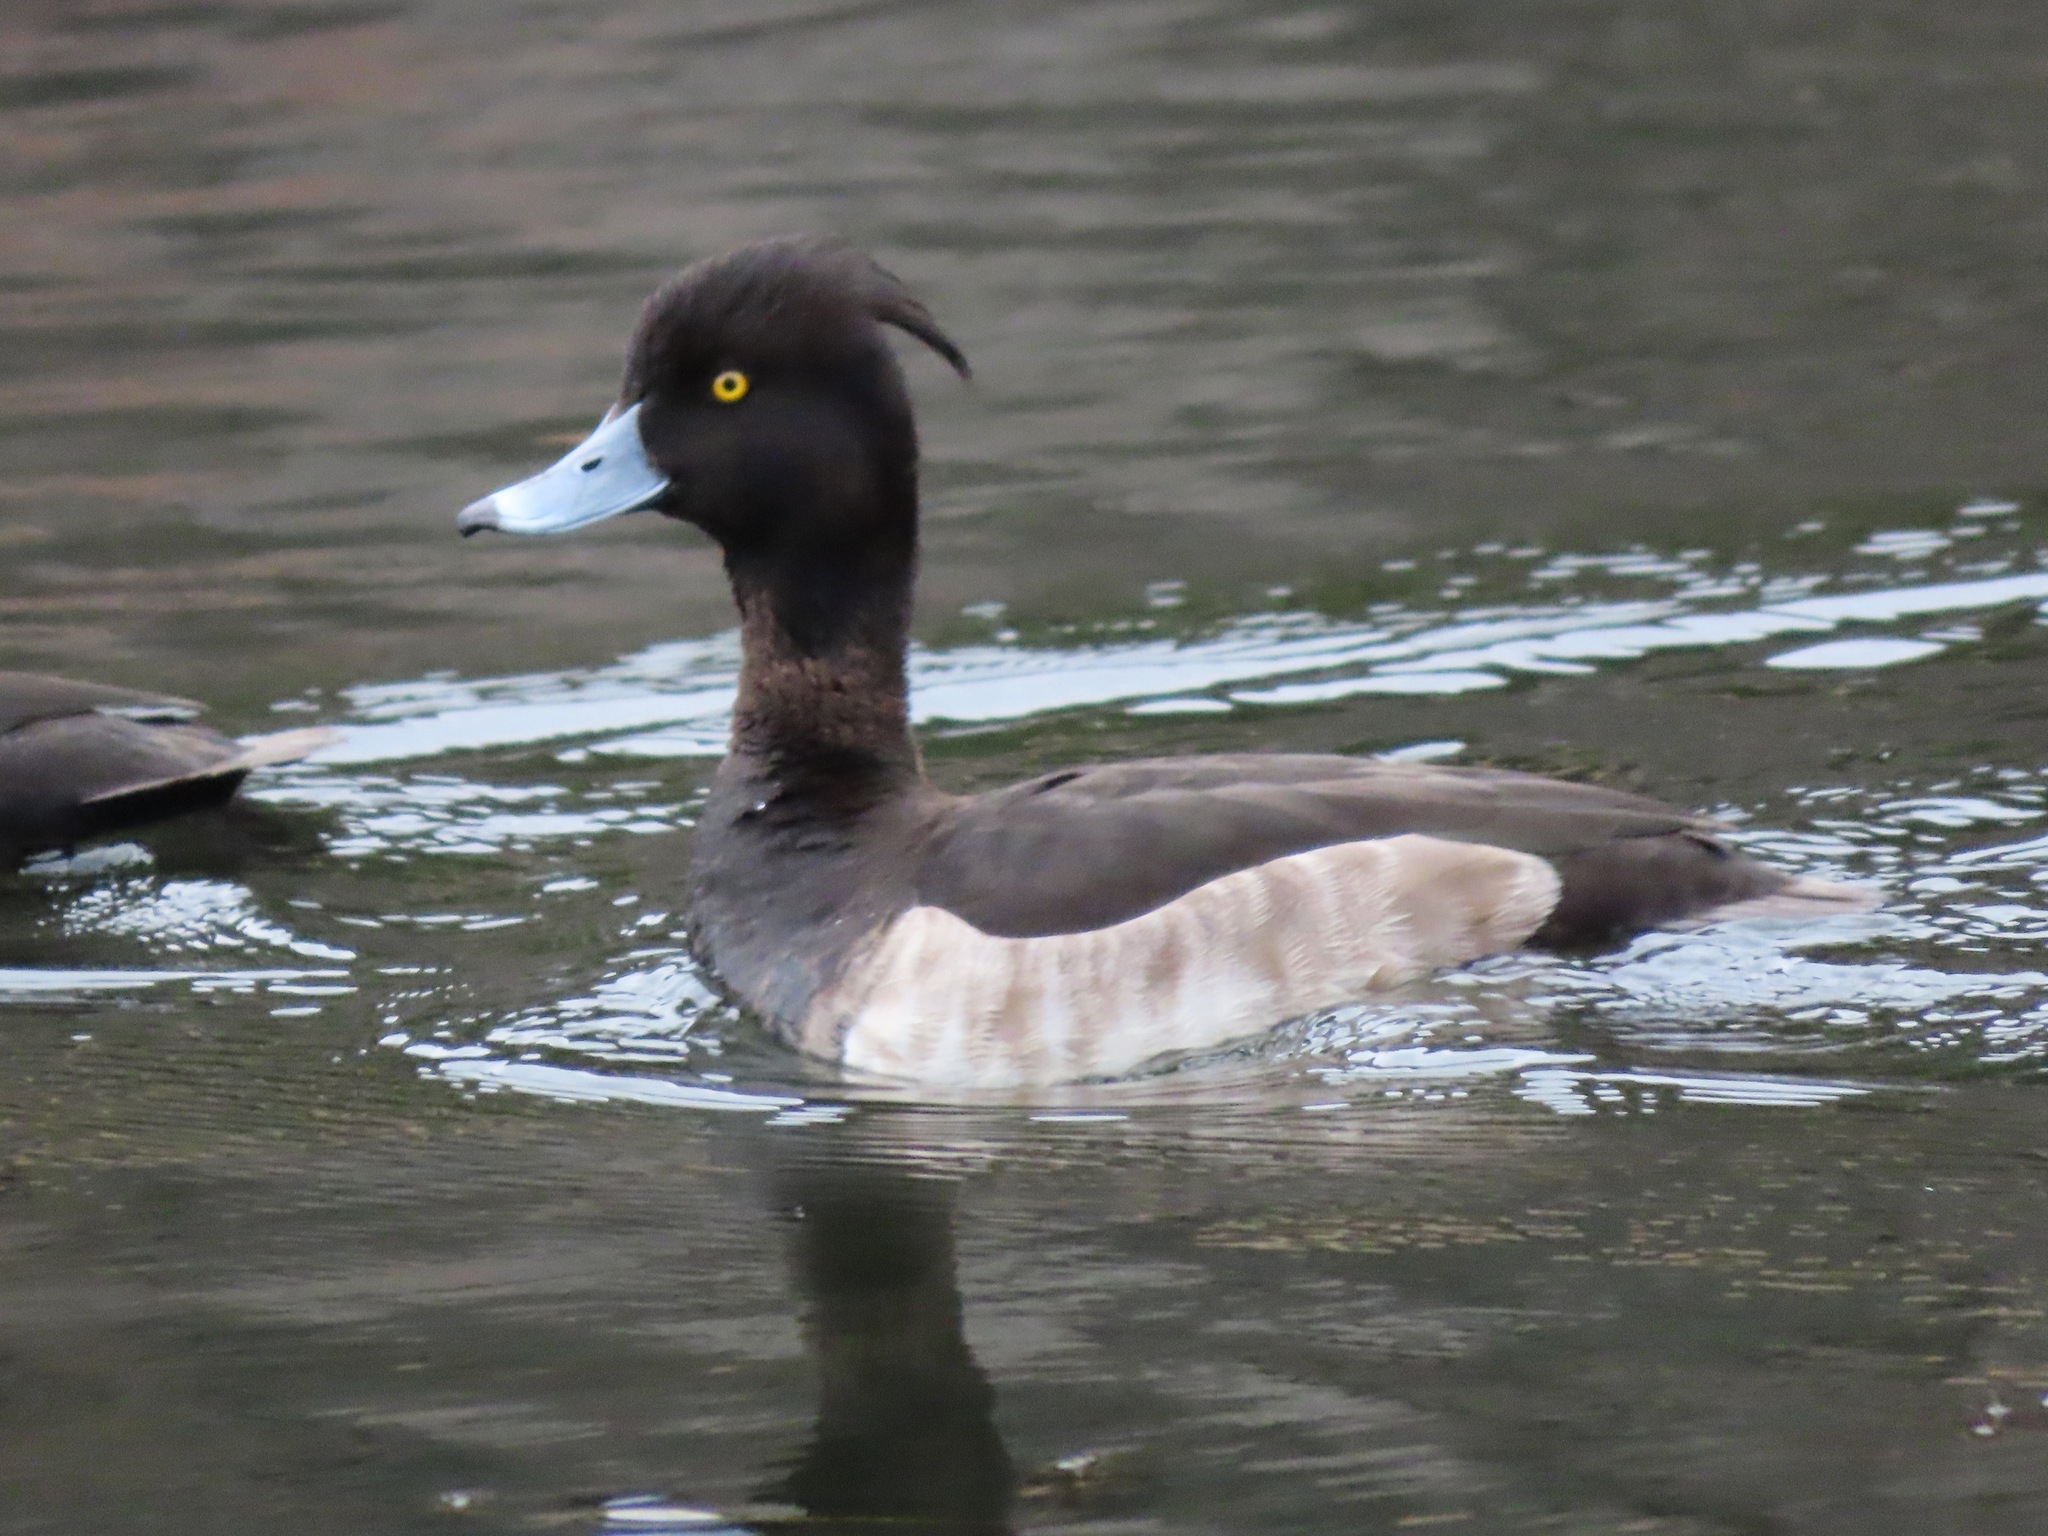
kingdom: Animalia
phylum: Chordata
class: Aves
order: Anseriformes
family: Anatidae
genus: Aythya
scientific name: Aythya fuligula
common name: Tufted duck
